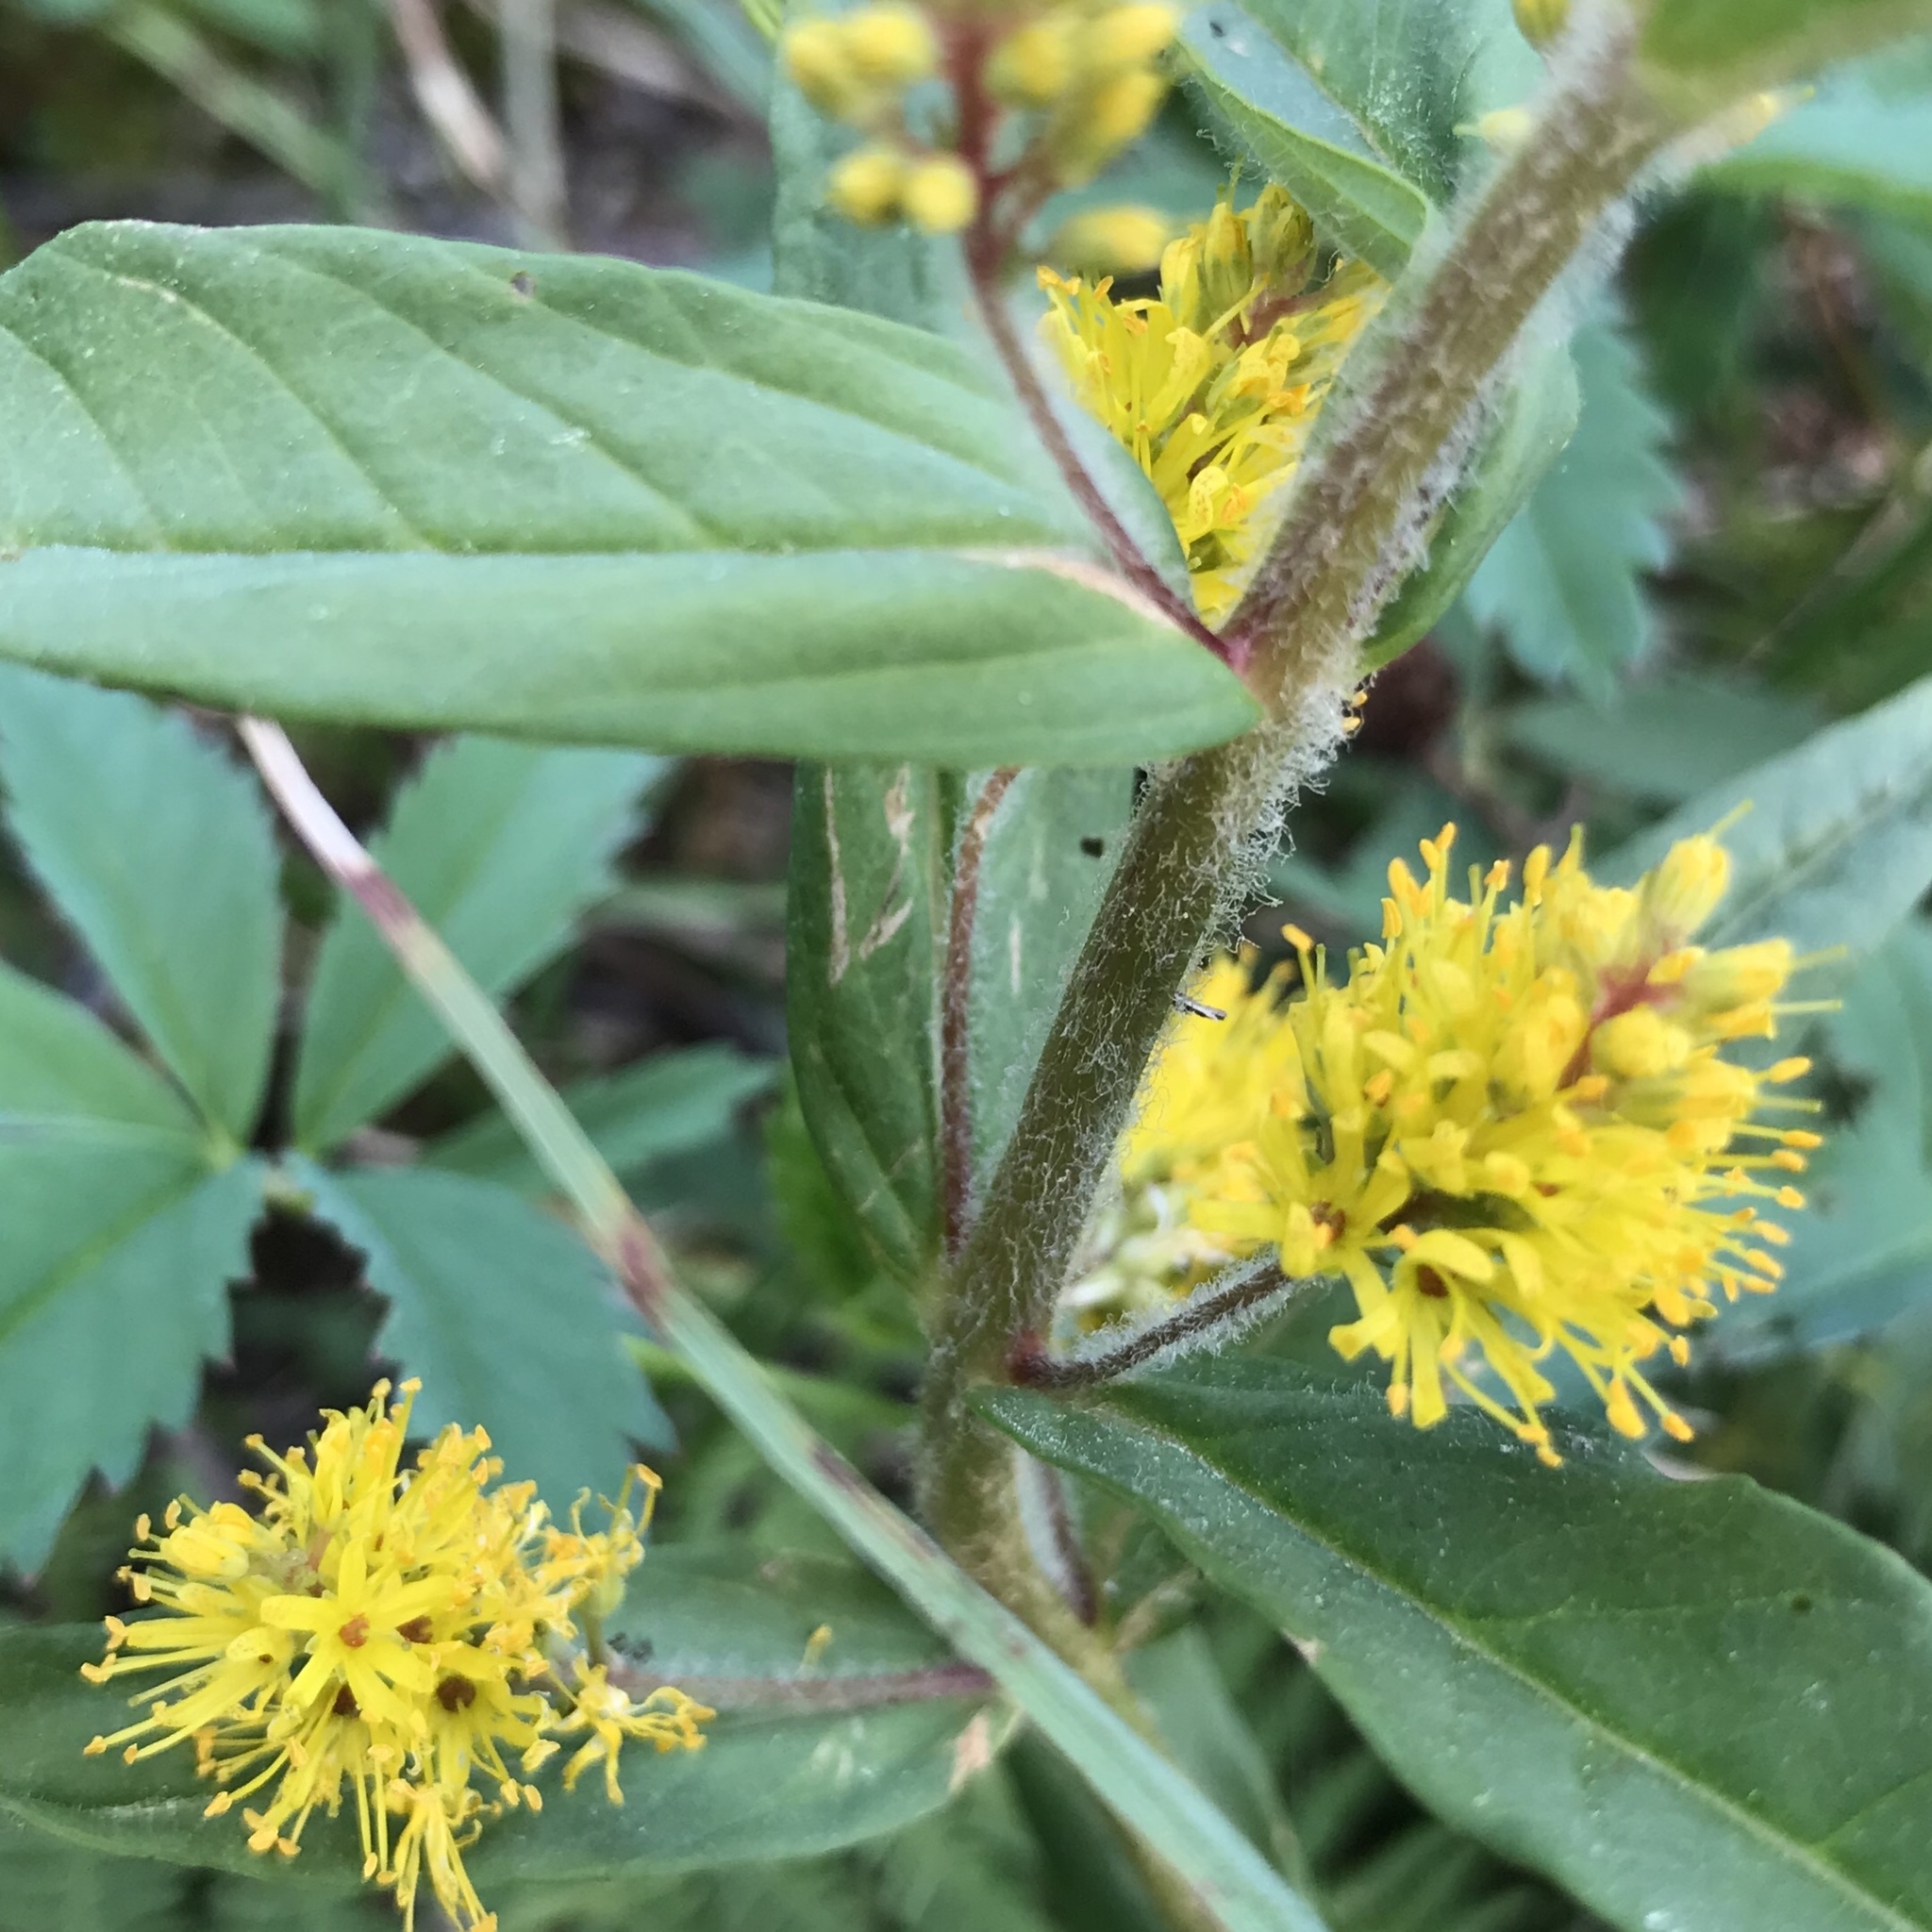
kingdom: Plantae
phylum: Tracheophyta
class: Magnoliopsida
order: Ericales
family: Primulaceae
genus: Lysimachia
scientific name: Lysimachia thyrsiflora
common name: Tufted loosestrife
